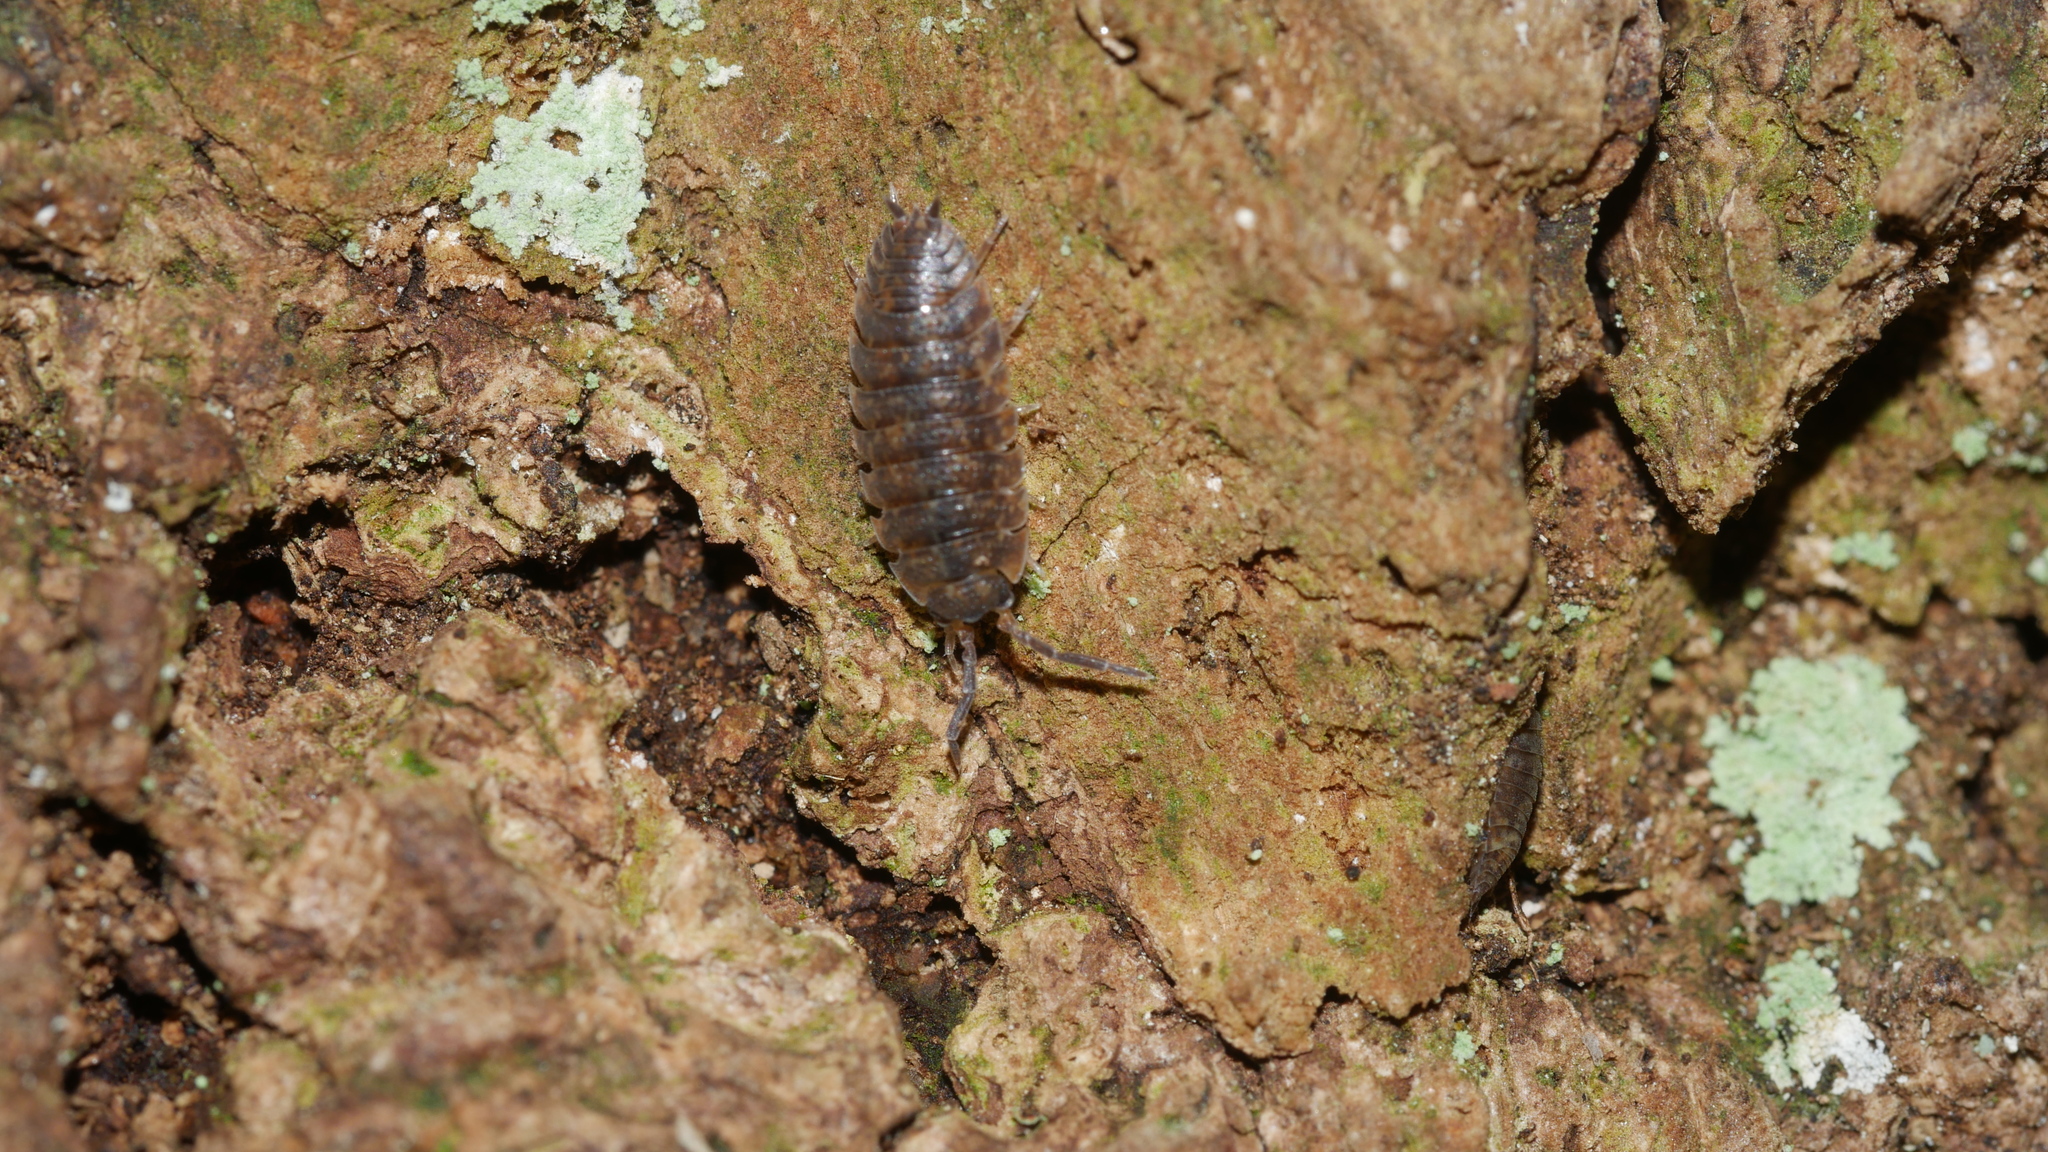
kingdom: Animalia
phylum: Arthropoda
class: Malacostraca
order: Isopoda
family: Porcellionidae
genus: Porcellio
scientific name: Porcellio scaber
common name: Common rough woodlouse
